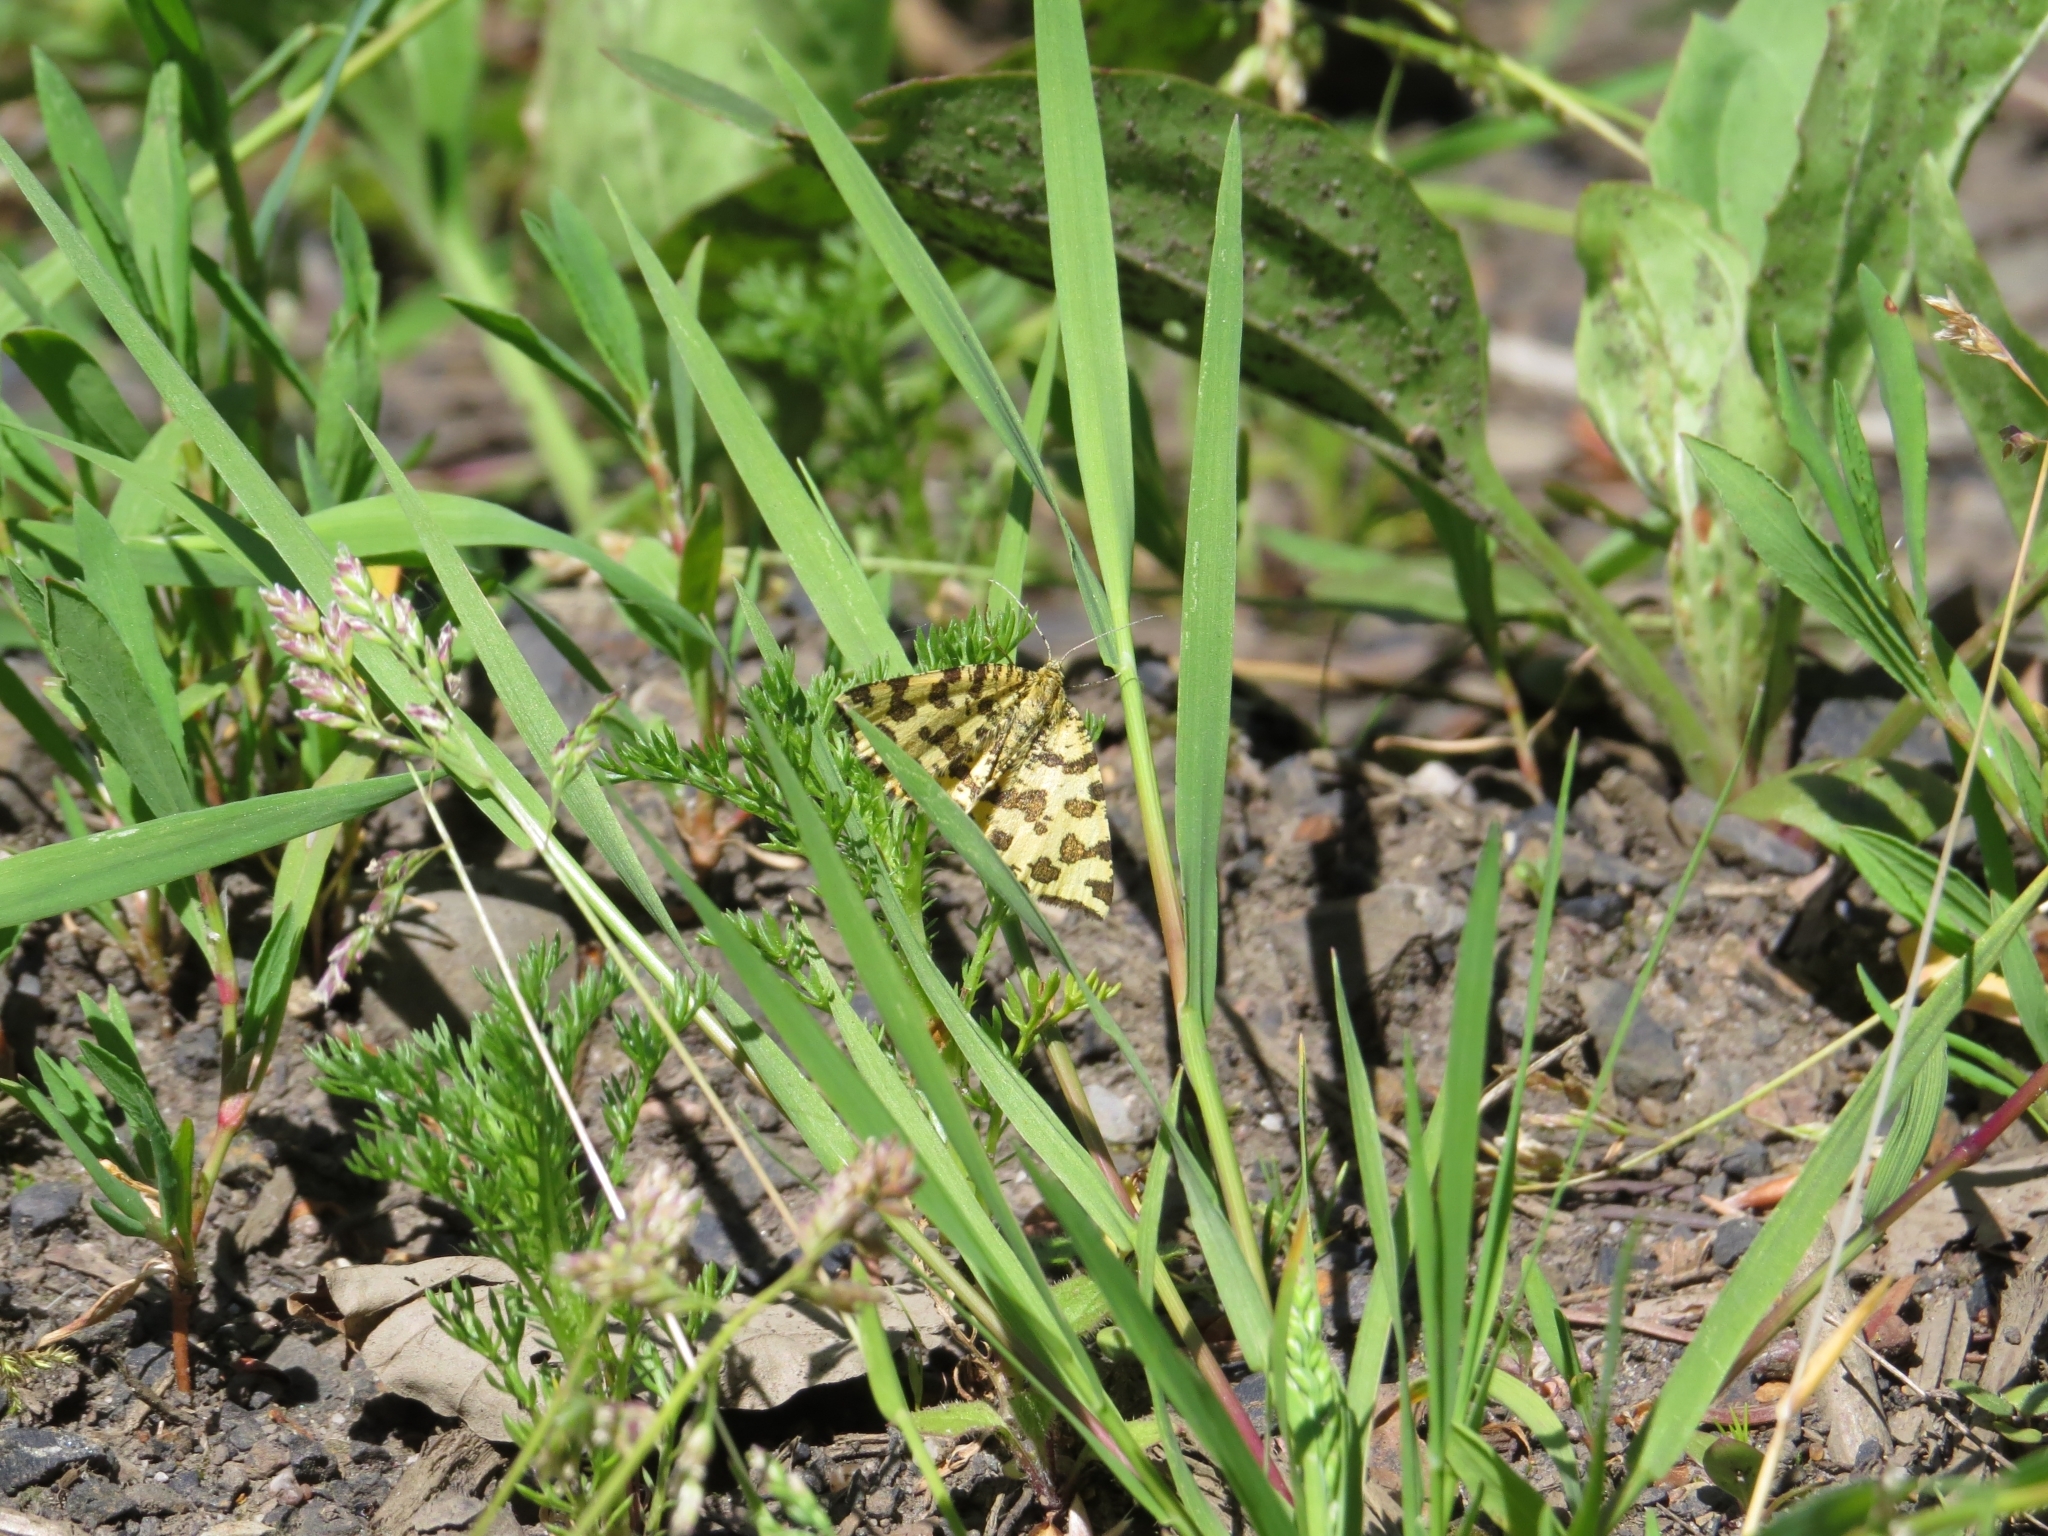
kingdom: Animalia
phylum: Arthropoda
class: Insecta
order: Lepidoptera
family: Geometridae
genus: Pseudopanthera
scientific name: Pseudopanthera macularia
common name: Speckled yellow
